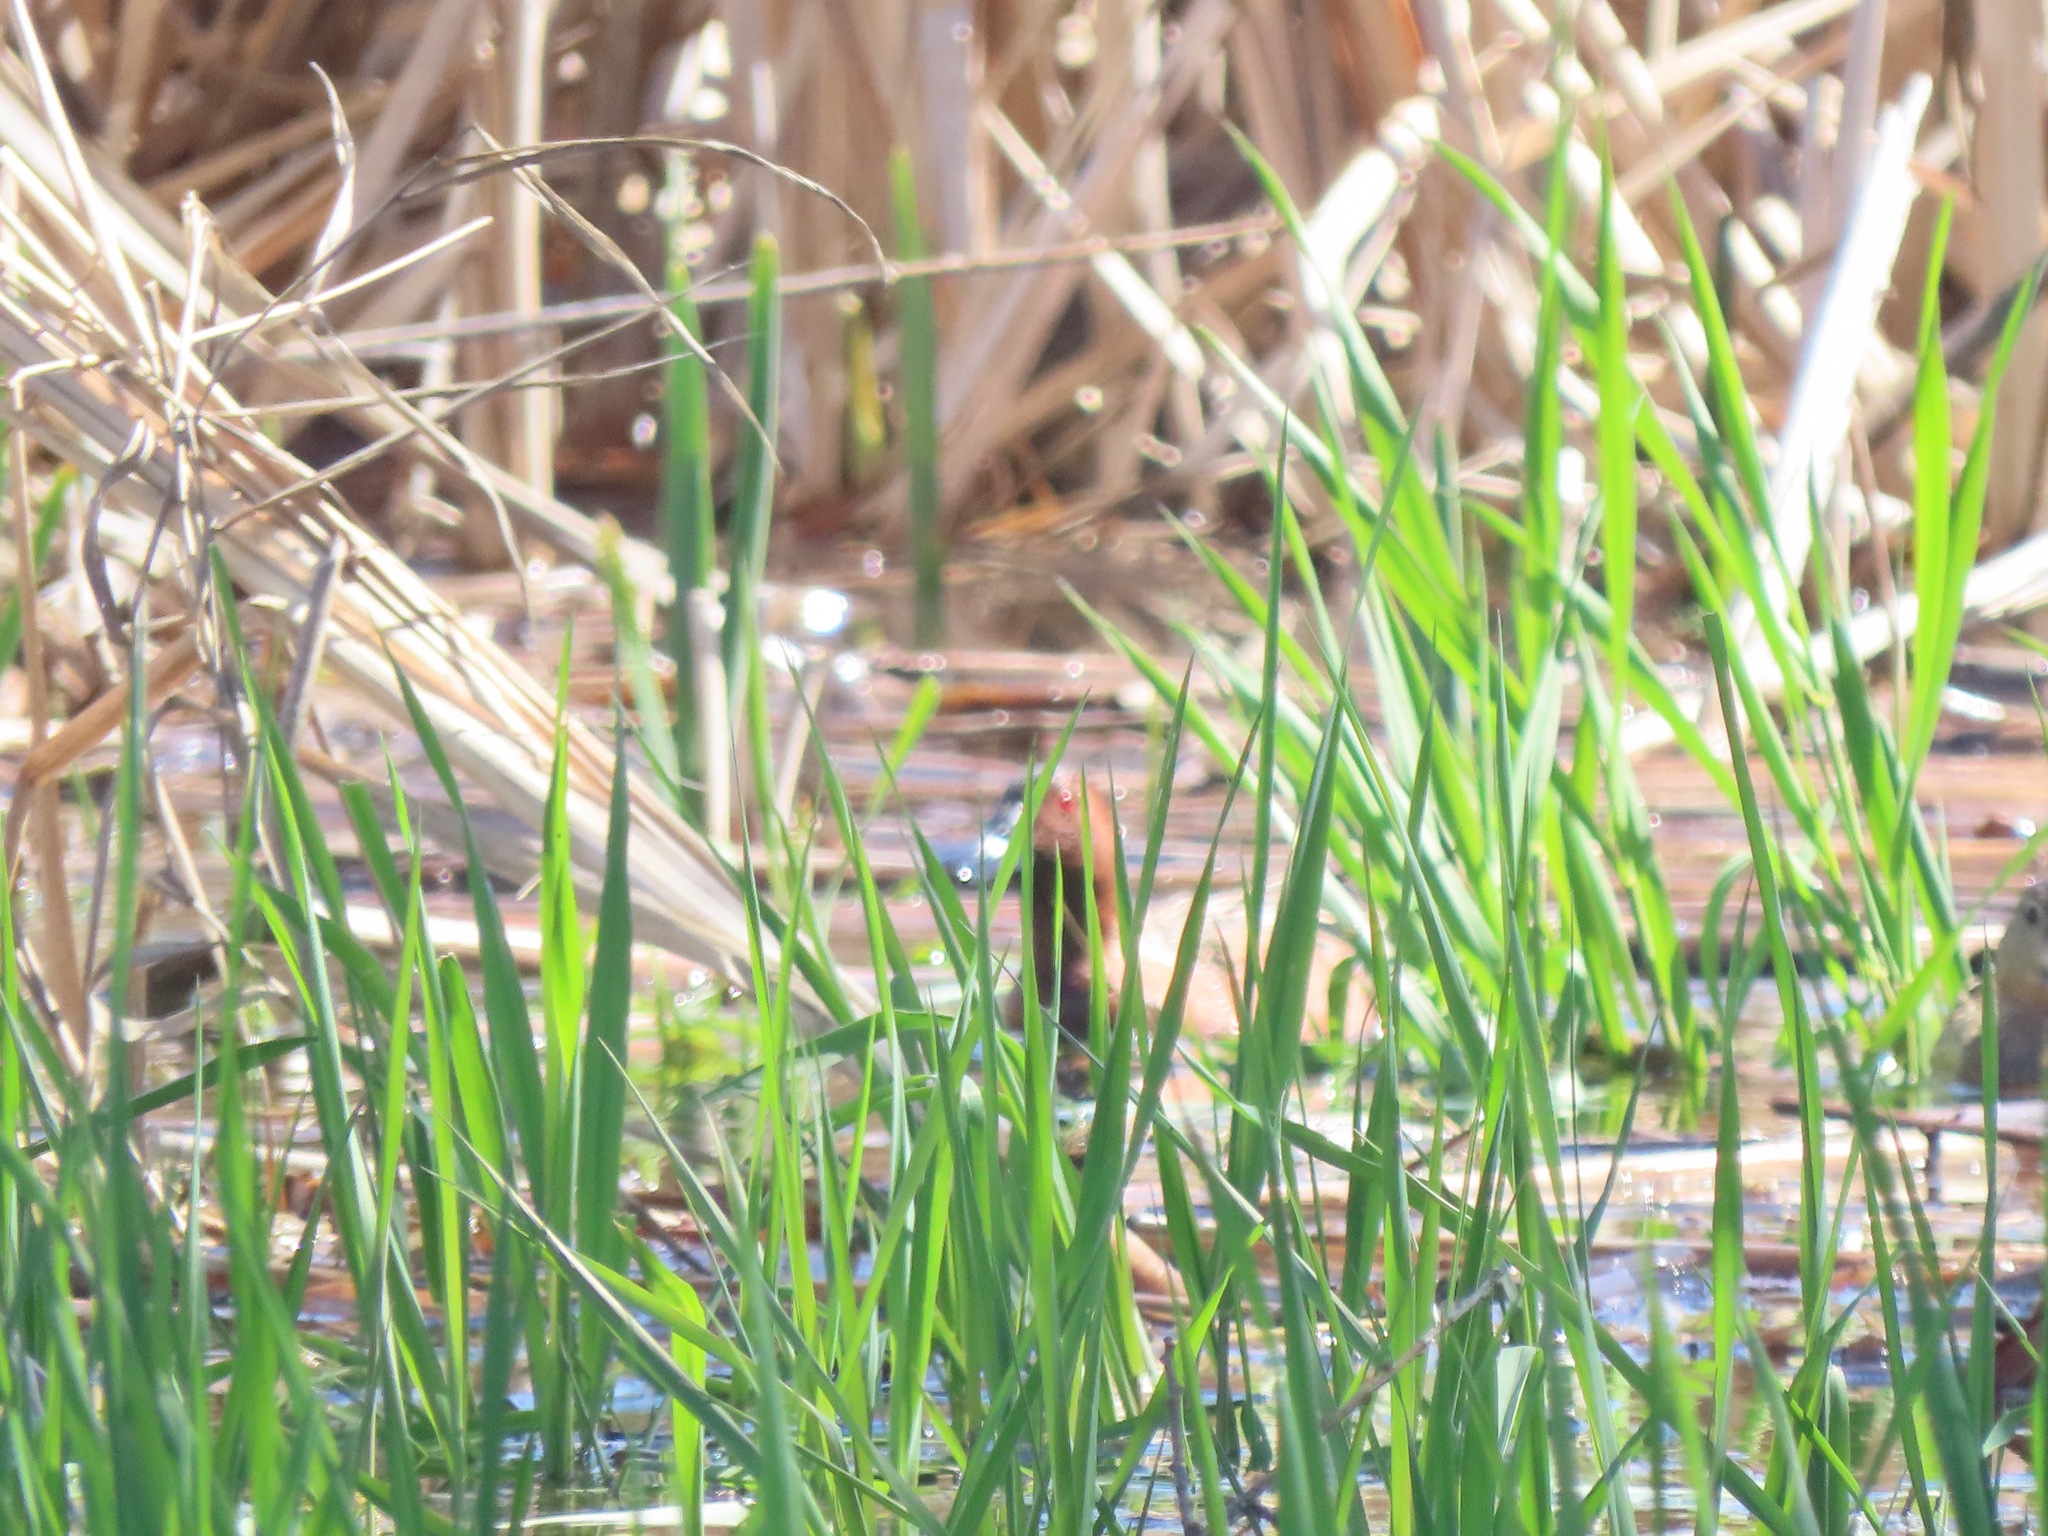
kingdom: Animalia
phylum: Chordata
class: Aves
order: Anseriformes
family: Anatidae
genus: Spatula
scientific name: Spatula cyanoptera
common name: Cinnamon teal
